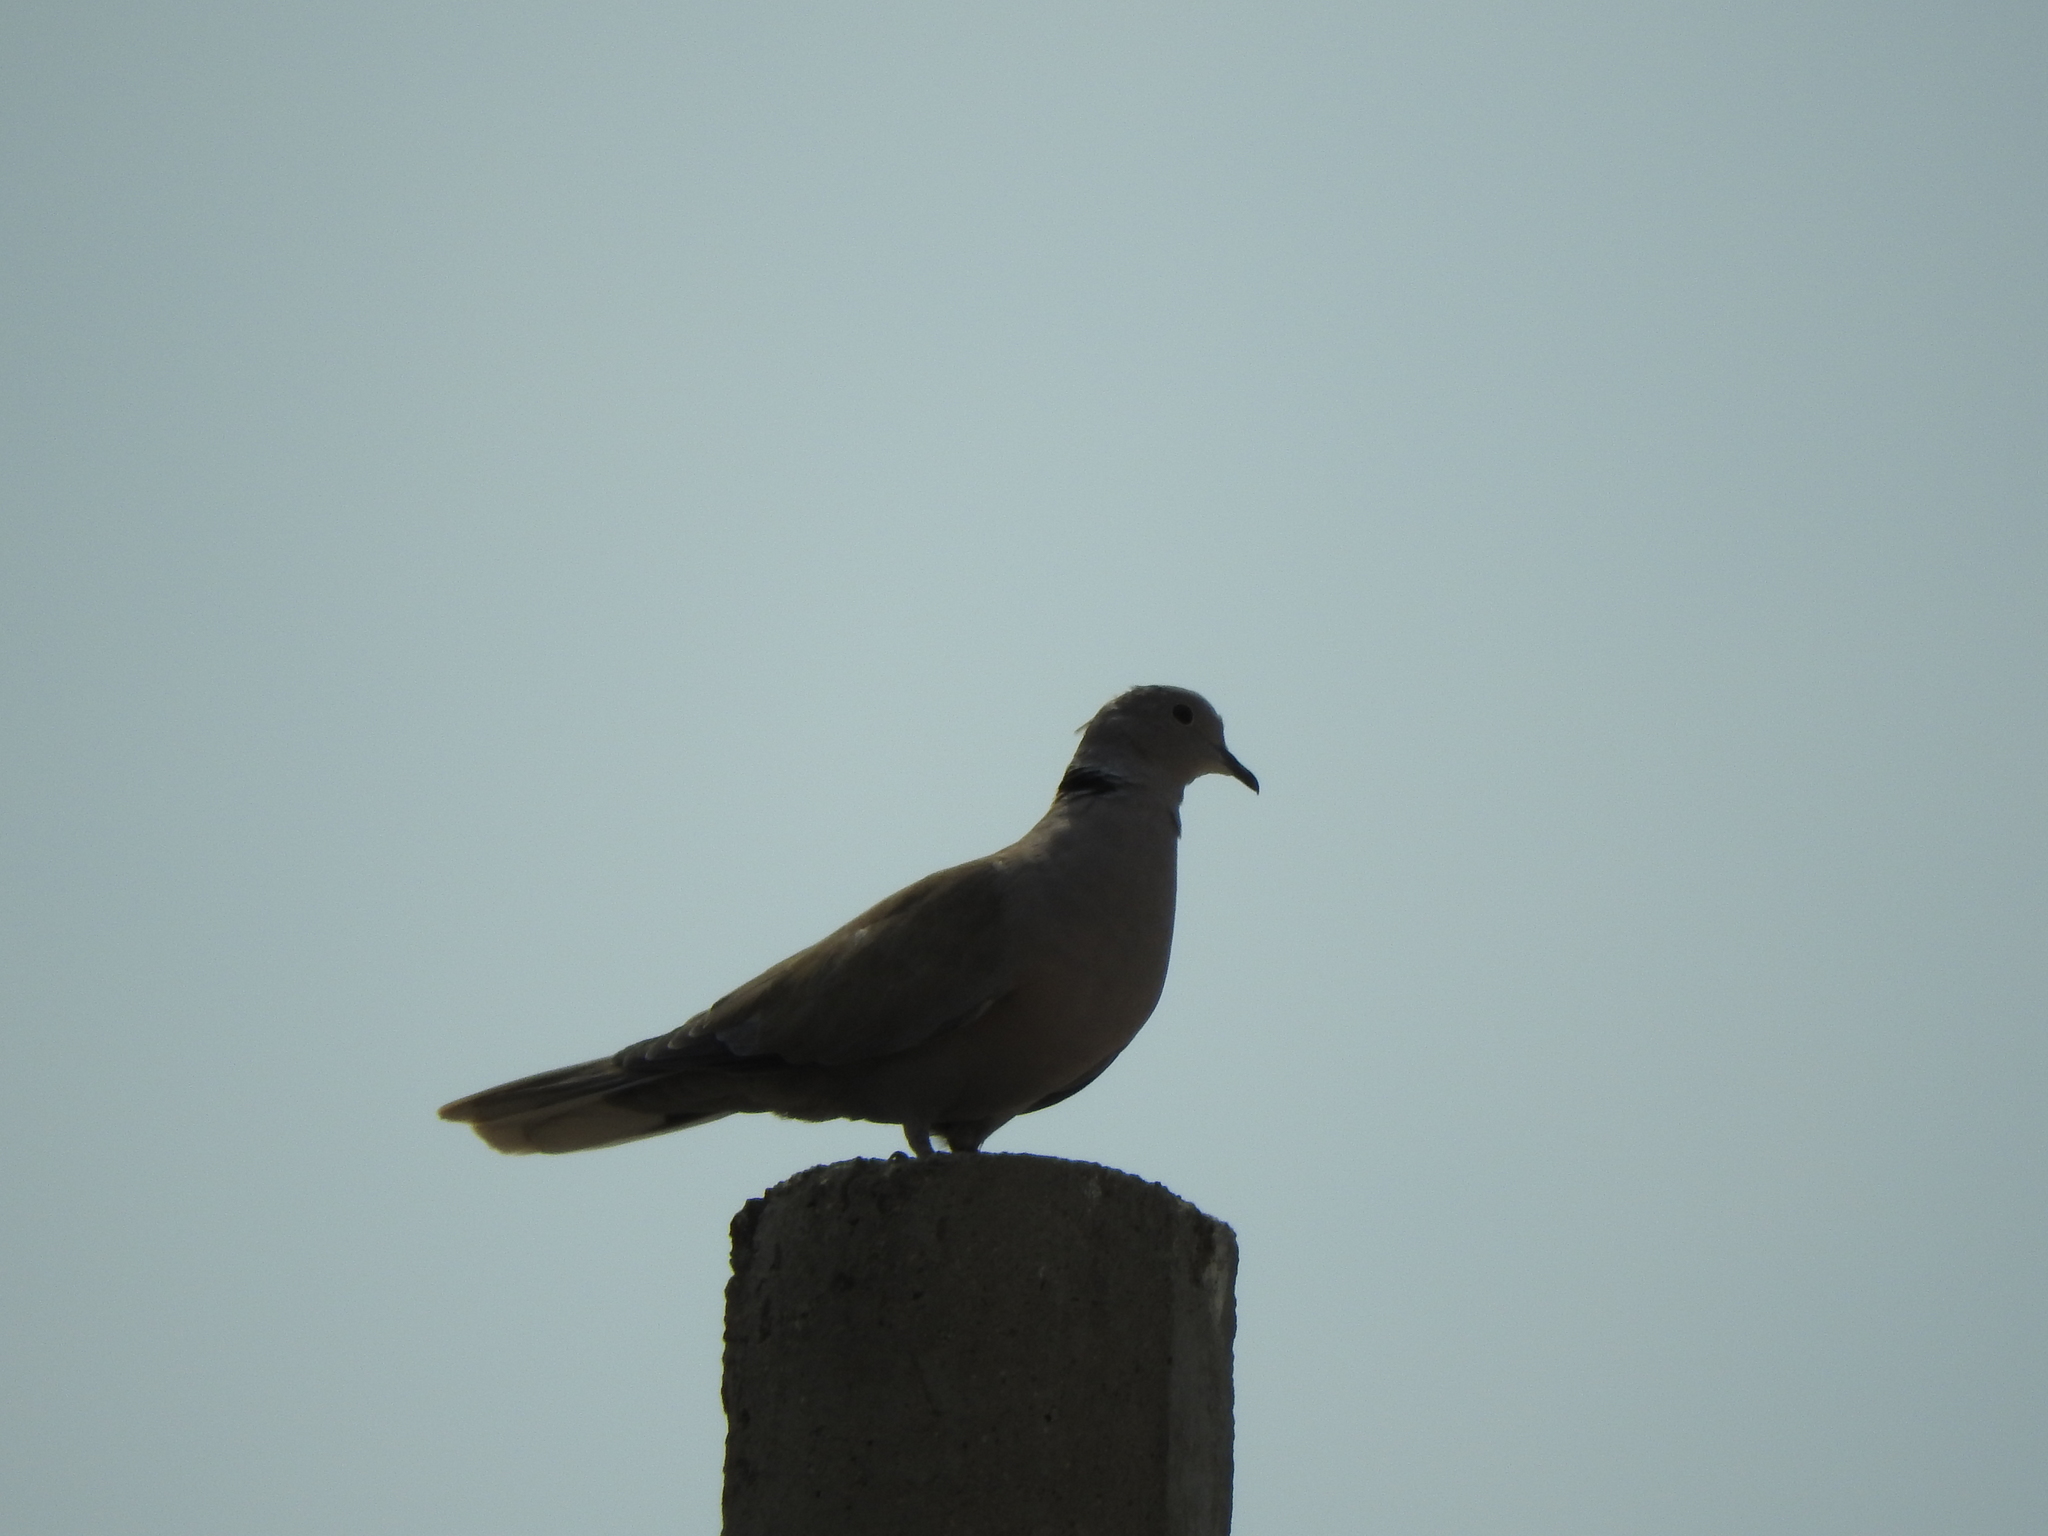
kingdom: Animalia
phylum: Chordata
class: Aves
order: Columbiformes
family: Columbidae
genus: Streptopelia
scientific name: Streptopelia decaocto
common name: Eurasian collared dove
